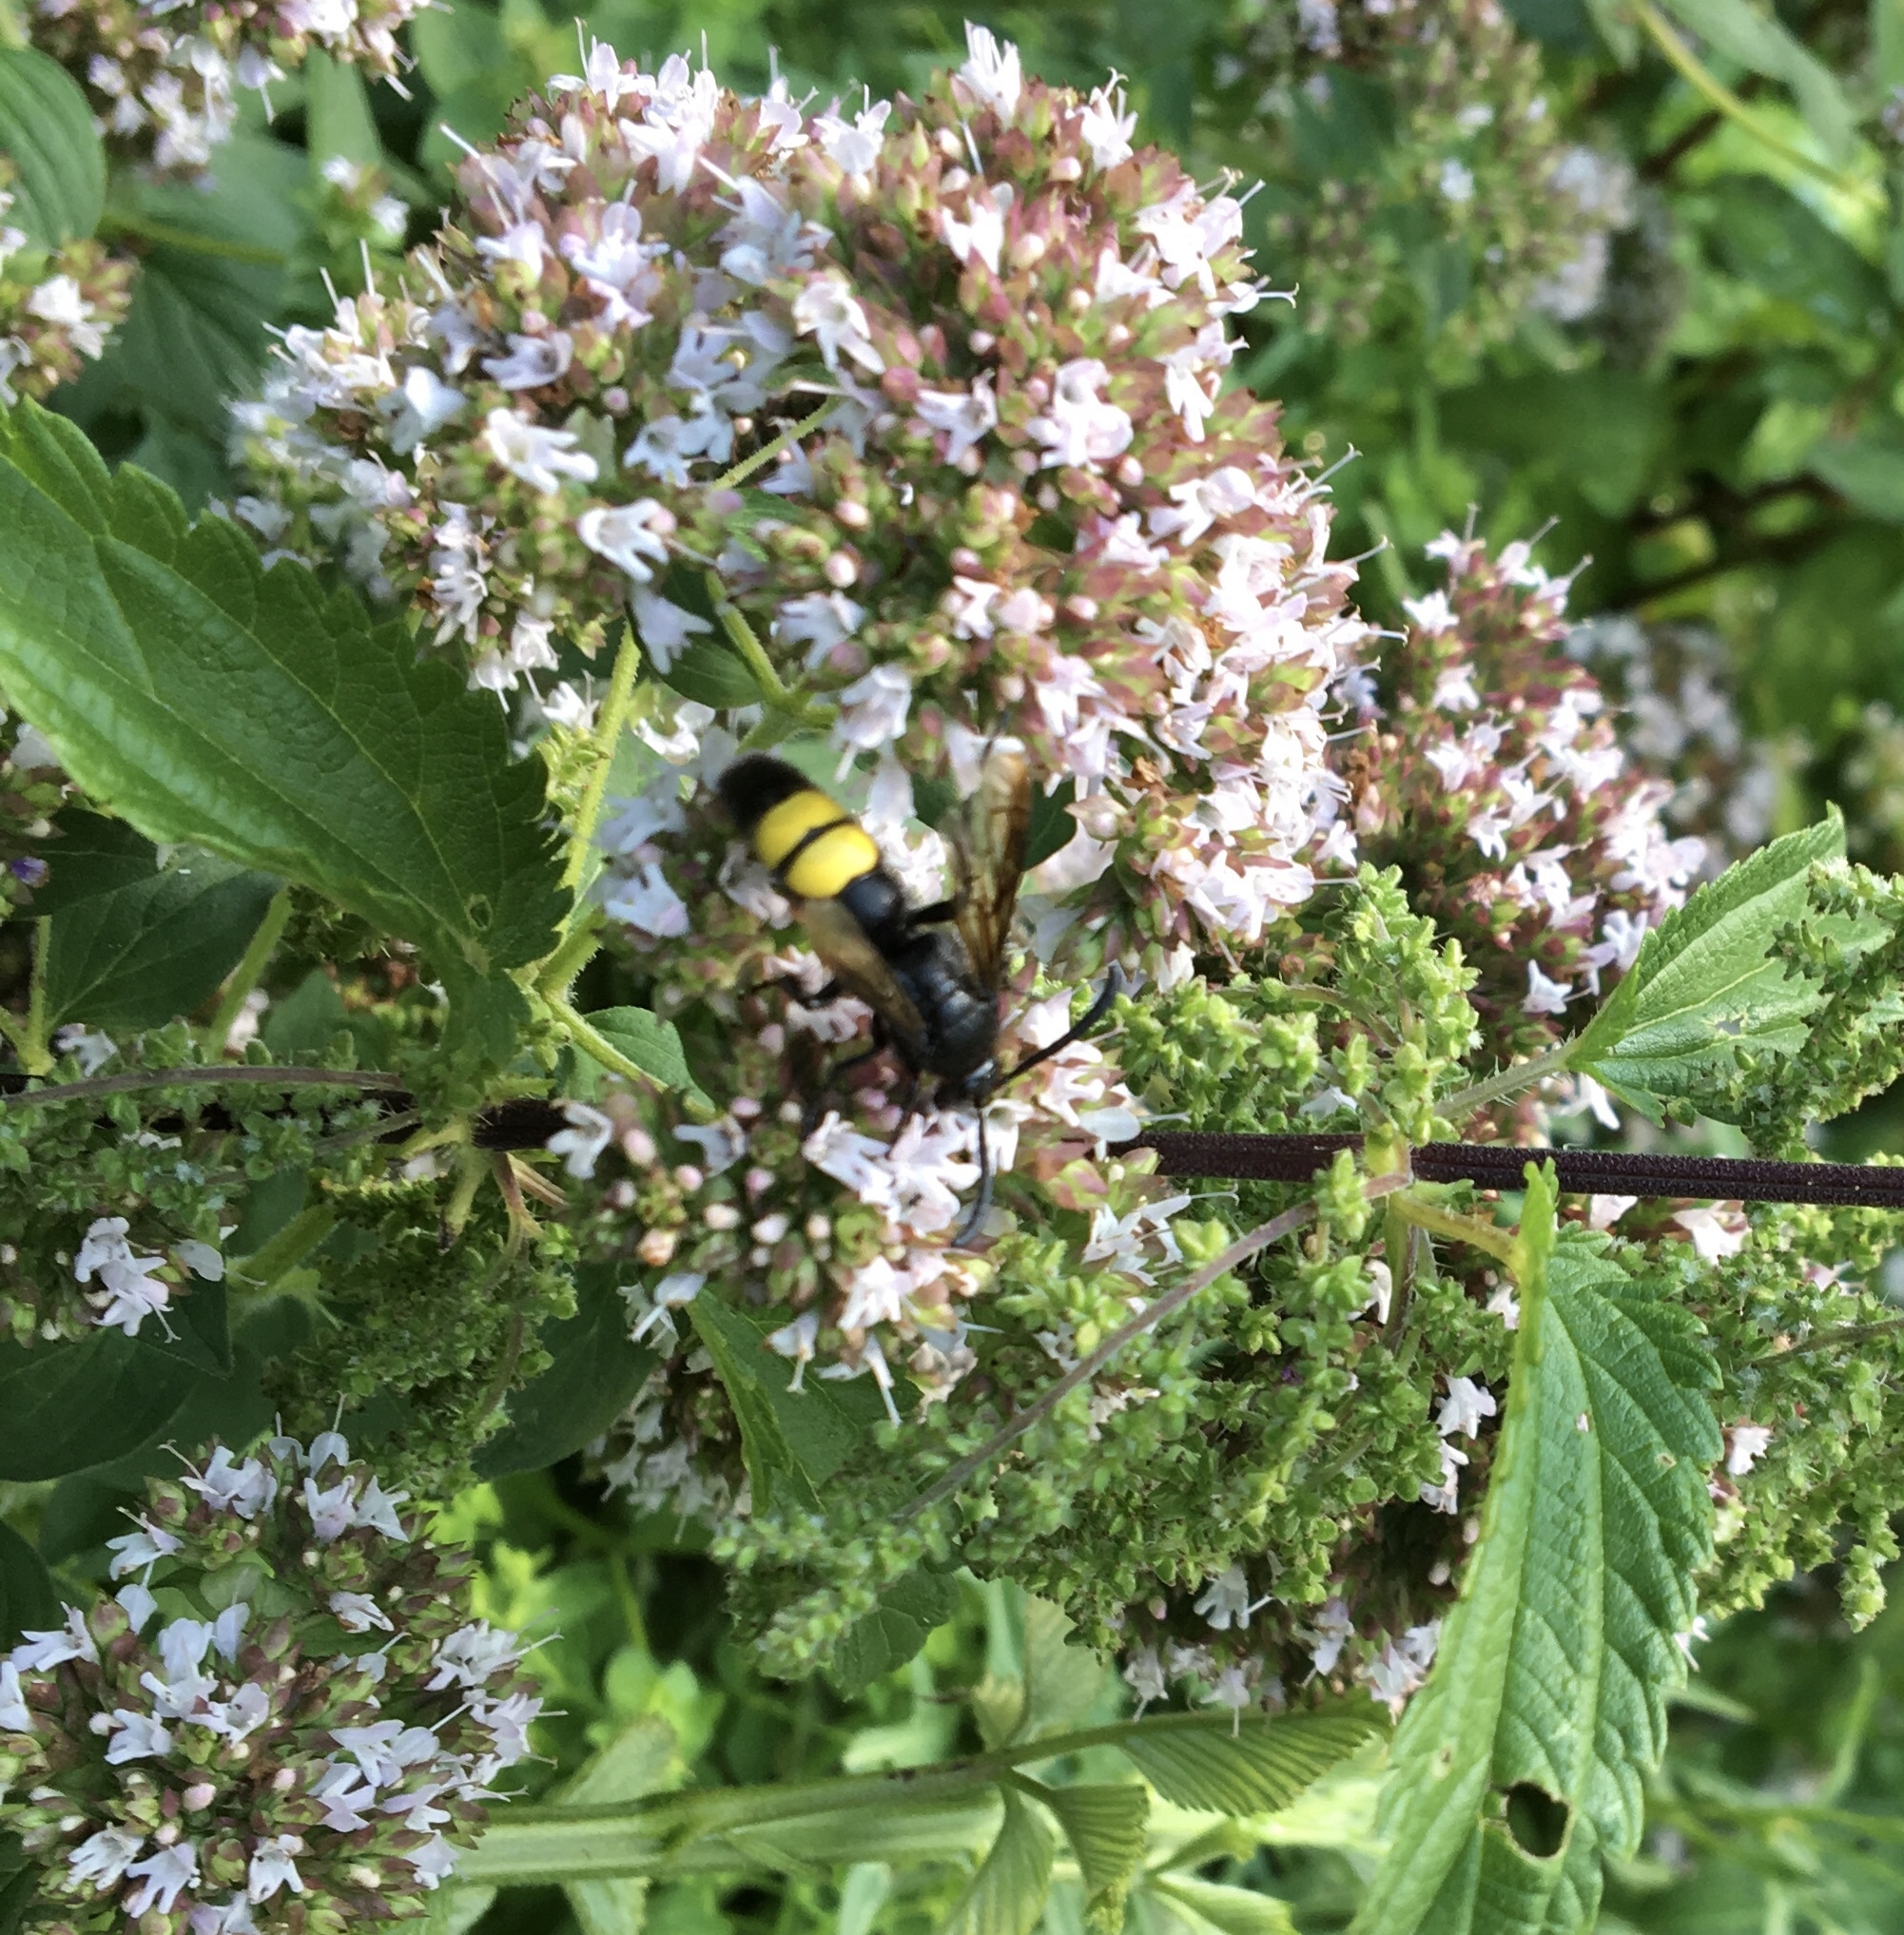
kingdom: Animalia
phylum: Arthropoda
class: Insecta
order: Hymenoptera
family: Scoliidae
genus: Scolia
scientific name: Scolia hirta
